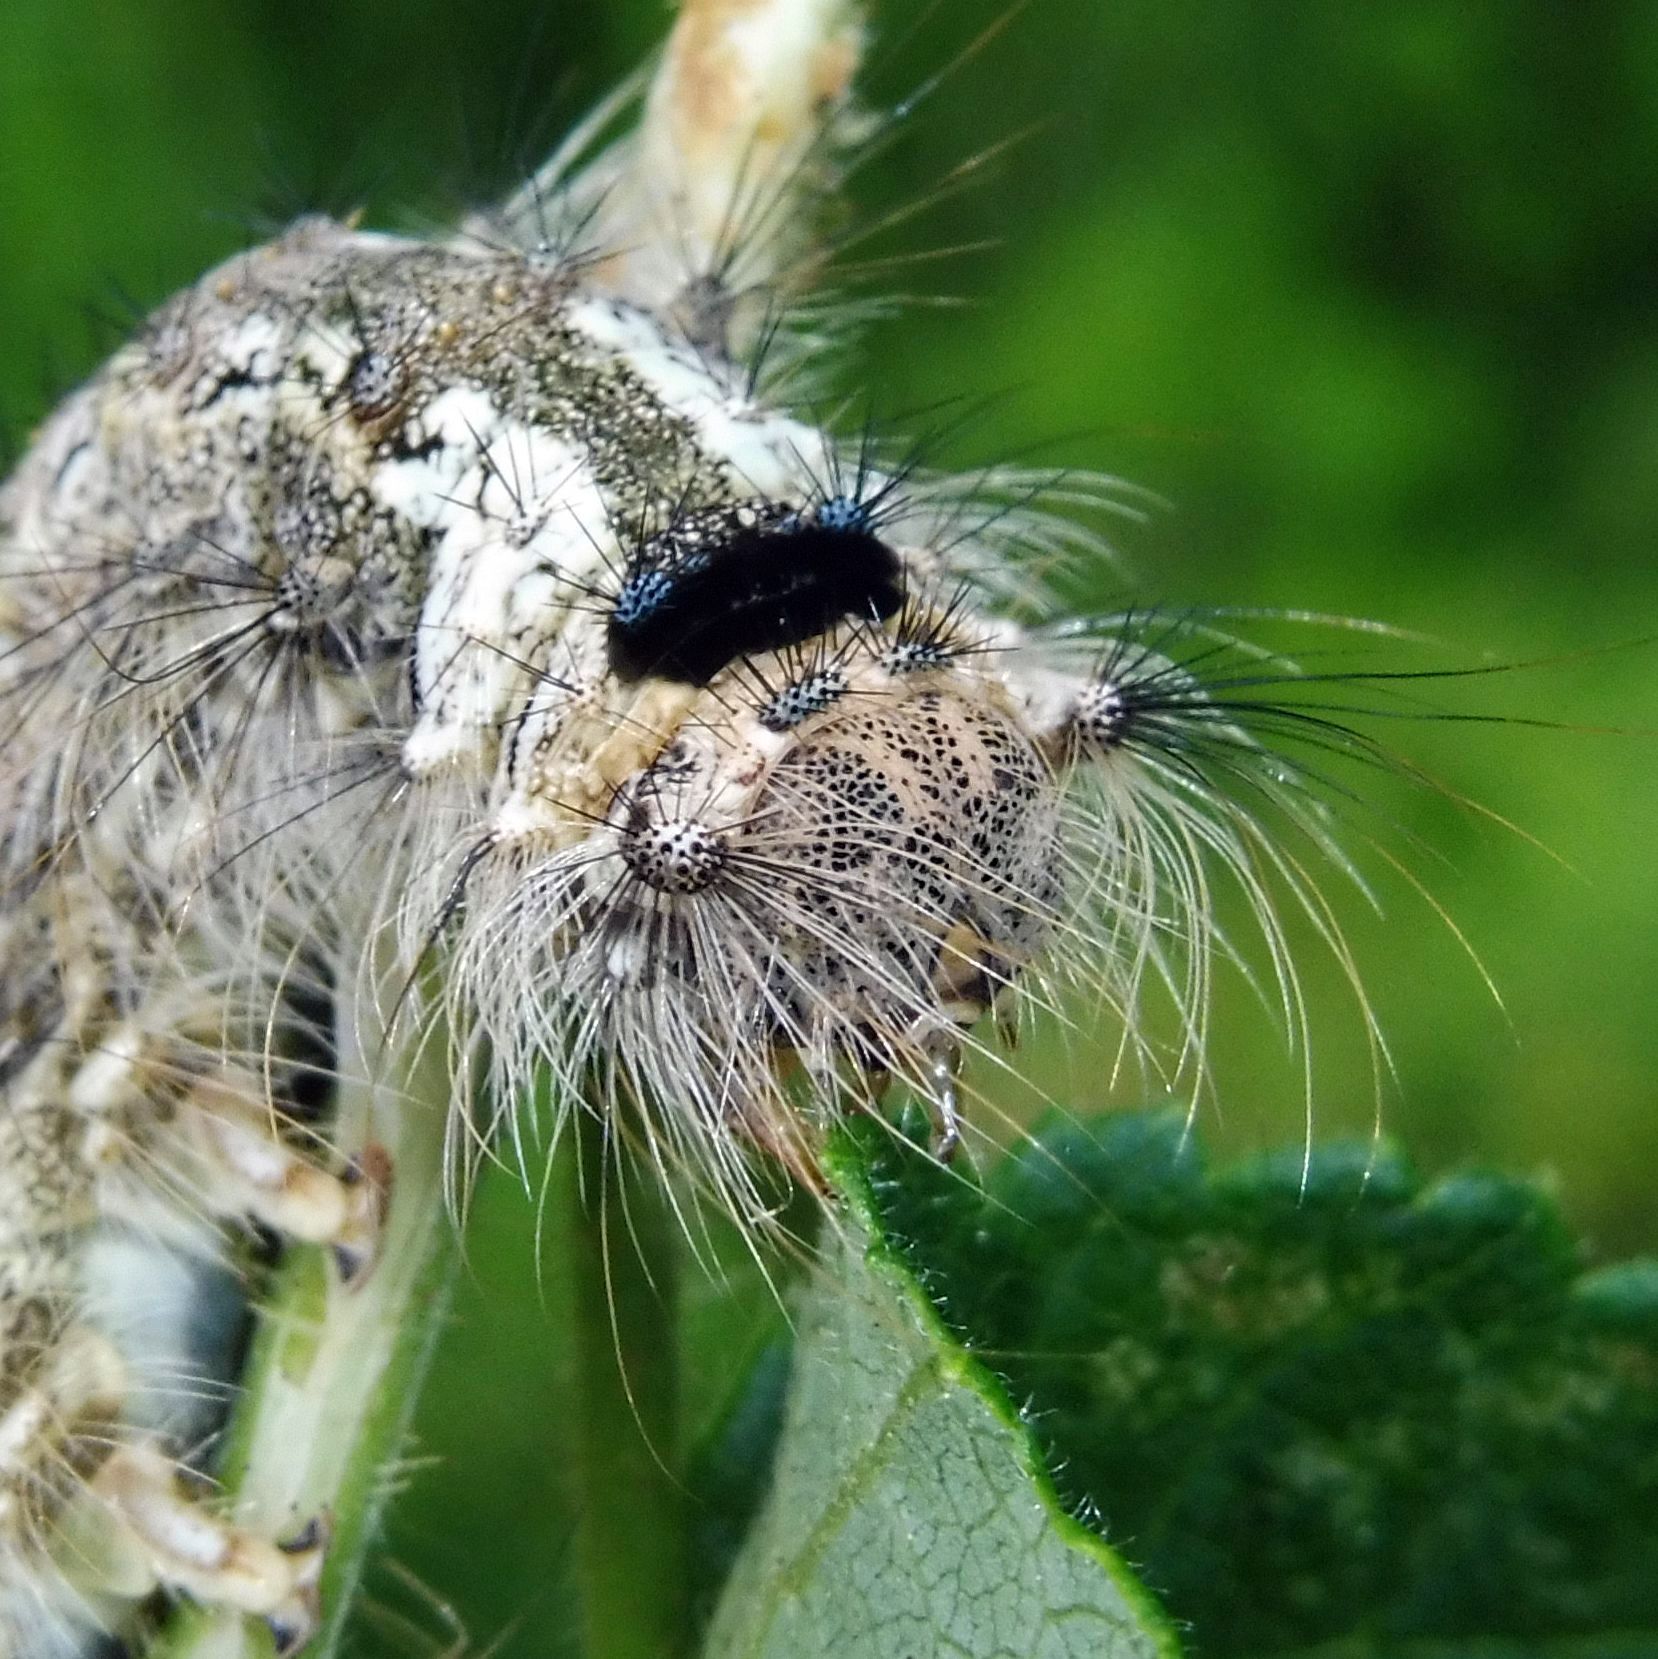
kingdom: Animalia
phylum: Arthropoda
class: Insecta
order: Lepidoptera
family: Erebidae
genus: Lymantria
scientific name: Lymantria monacha
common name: Black arches
